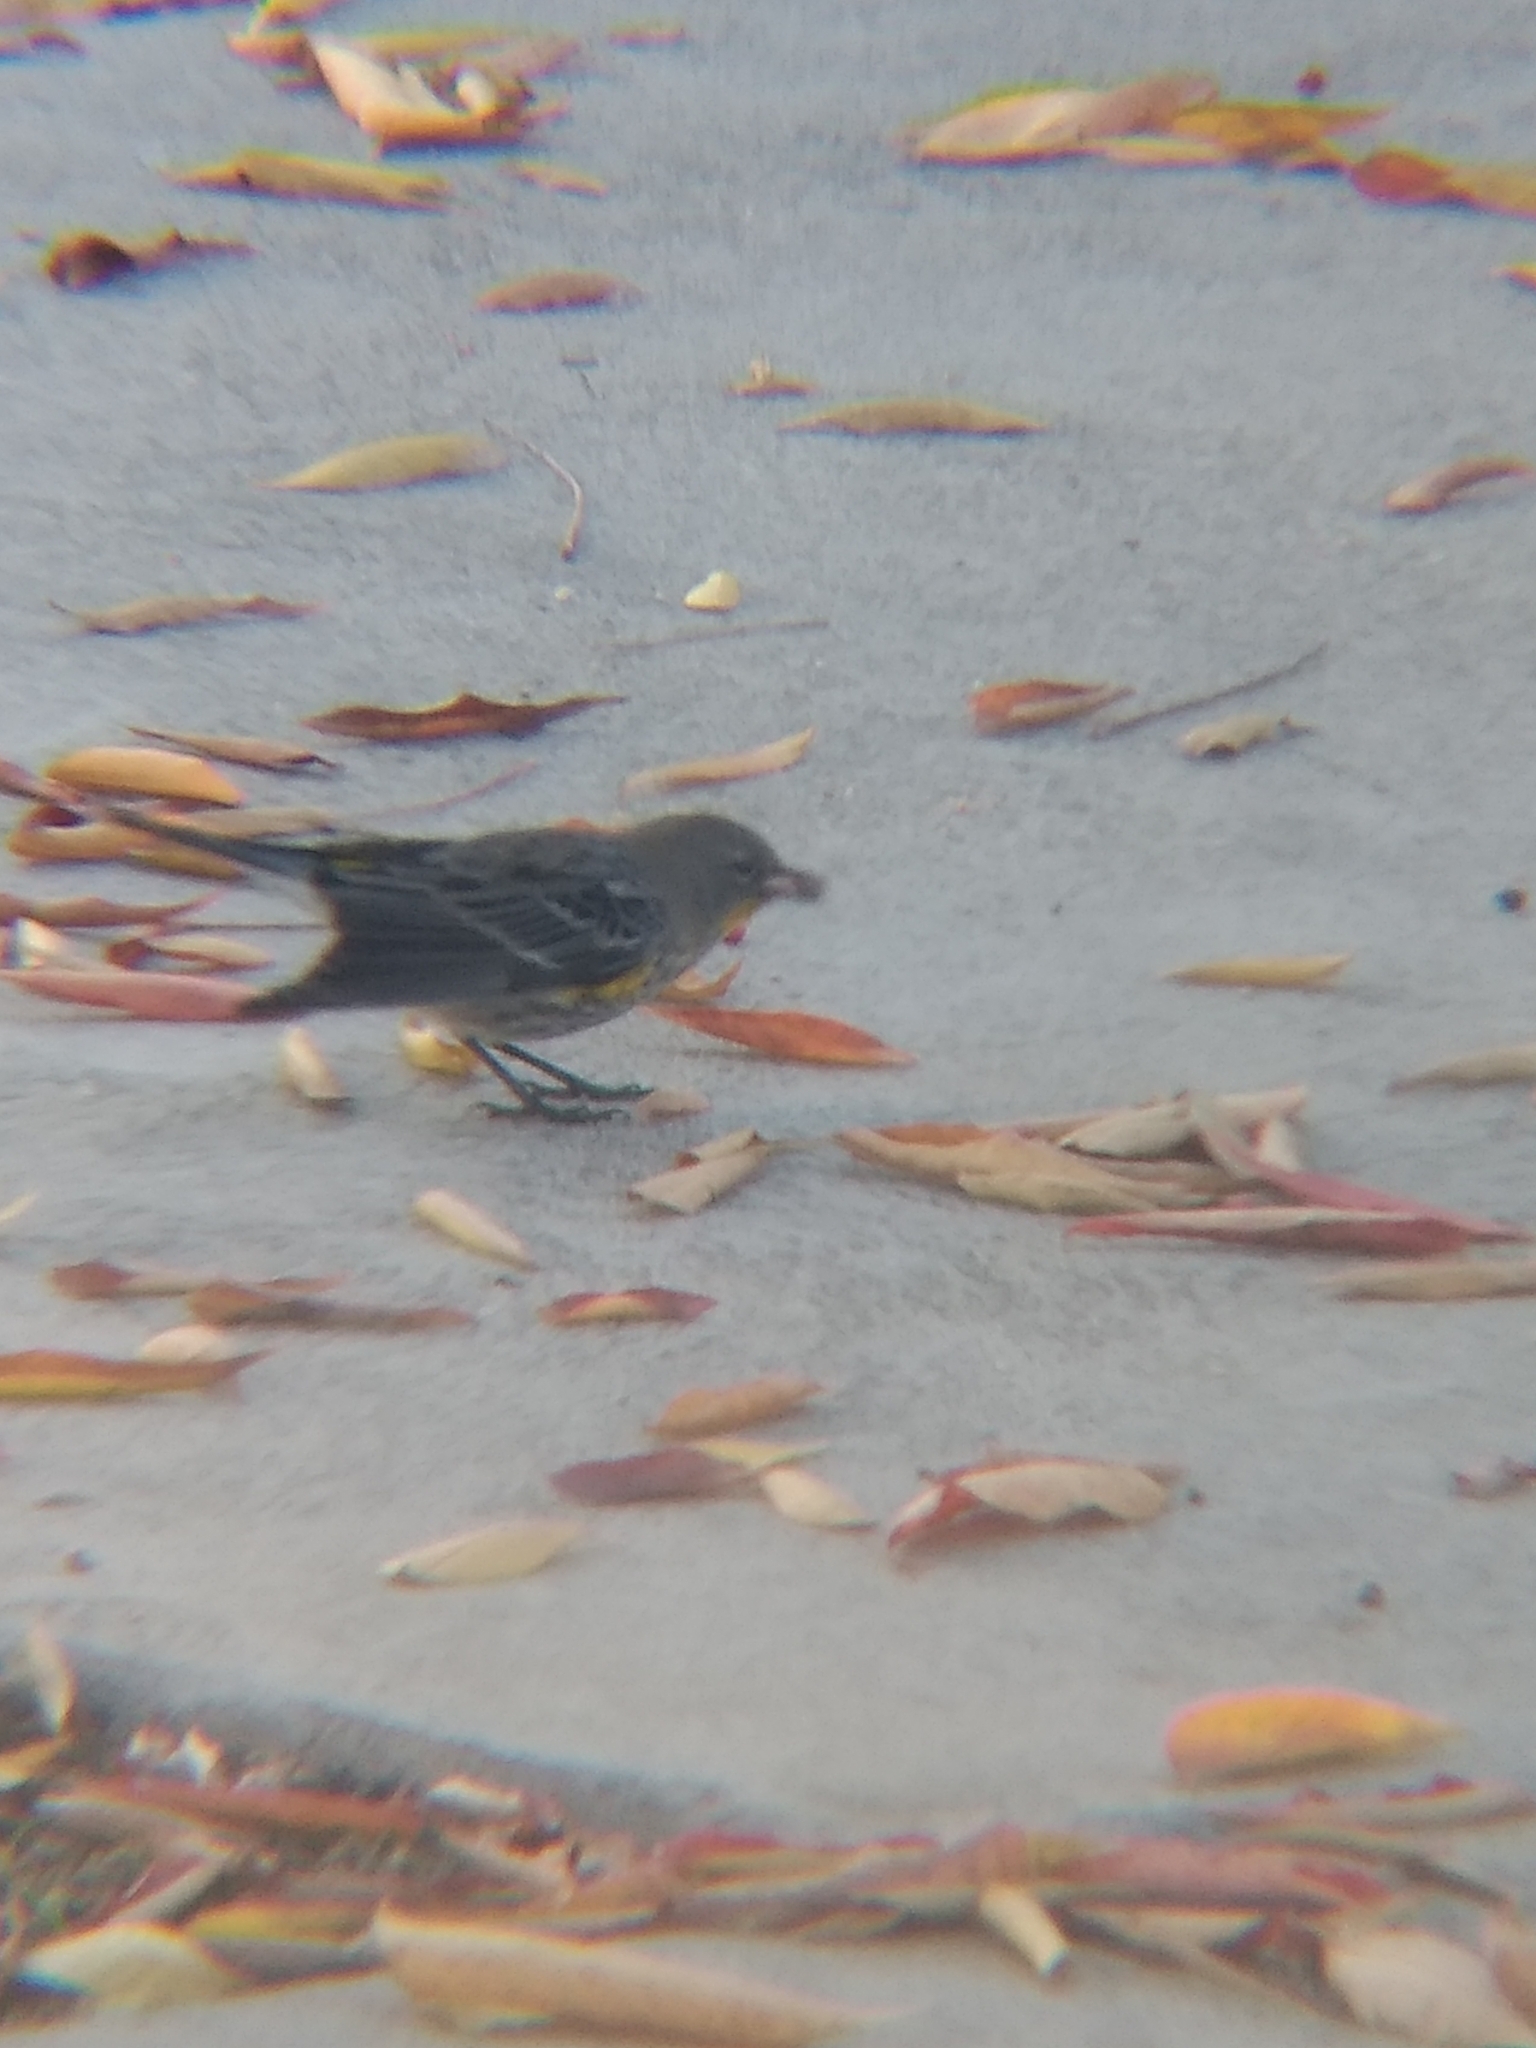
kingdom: Animalia
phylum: Chordata
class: Aves
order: Passeriformes
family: Parulidae
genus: Setophaga
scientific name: Setophaga coronata
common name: Myrtle warbler
